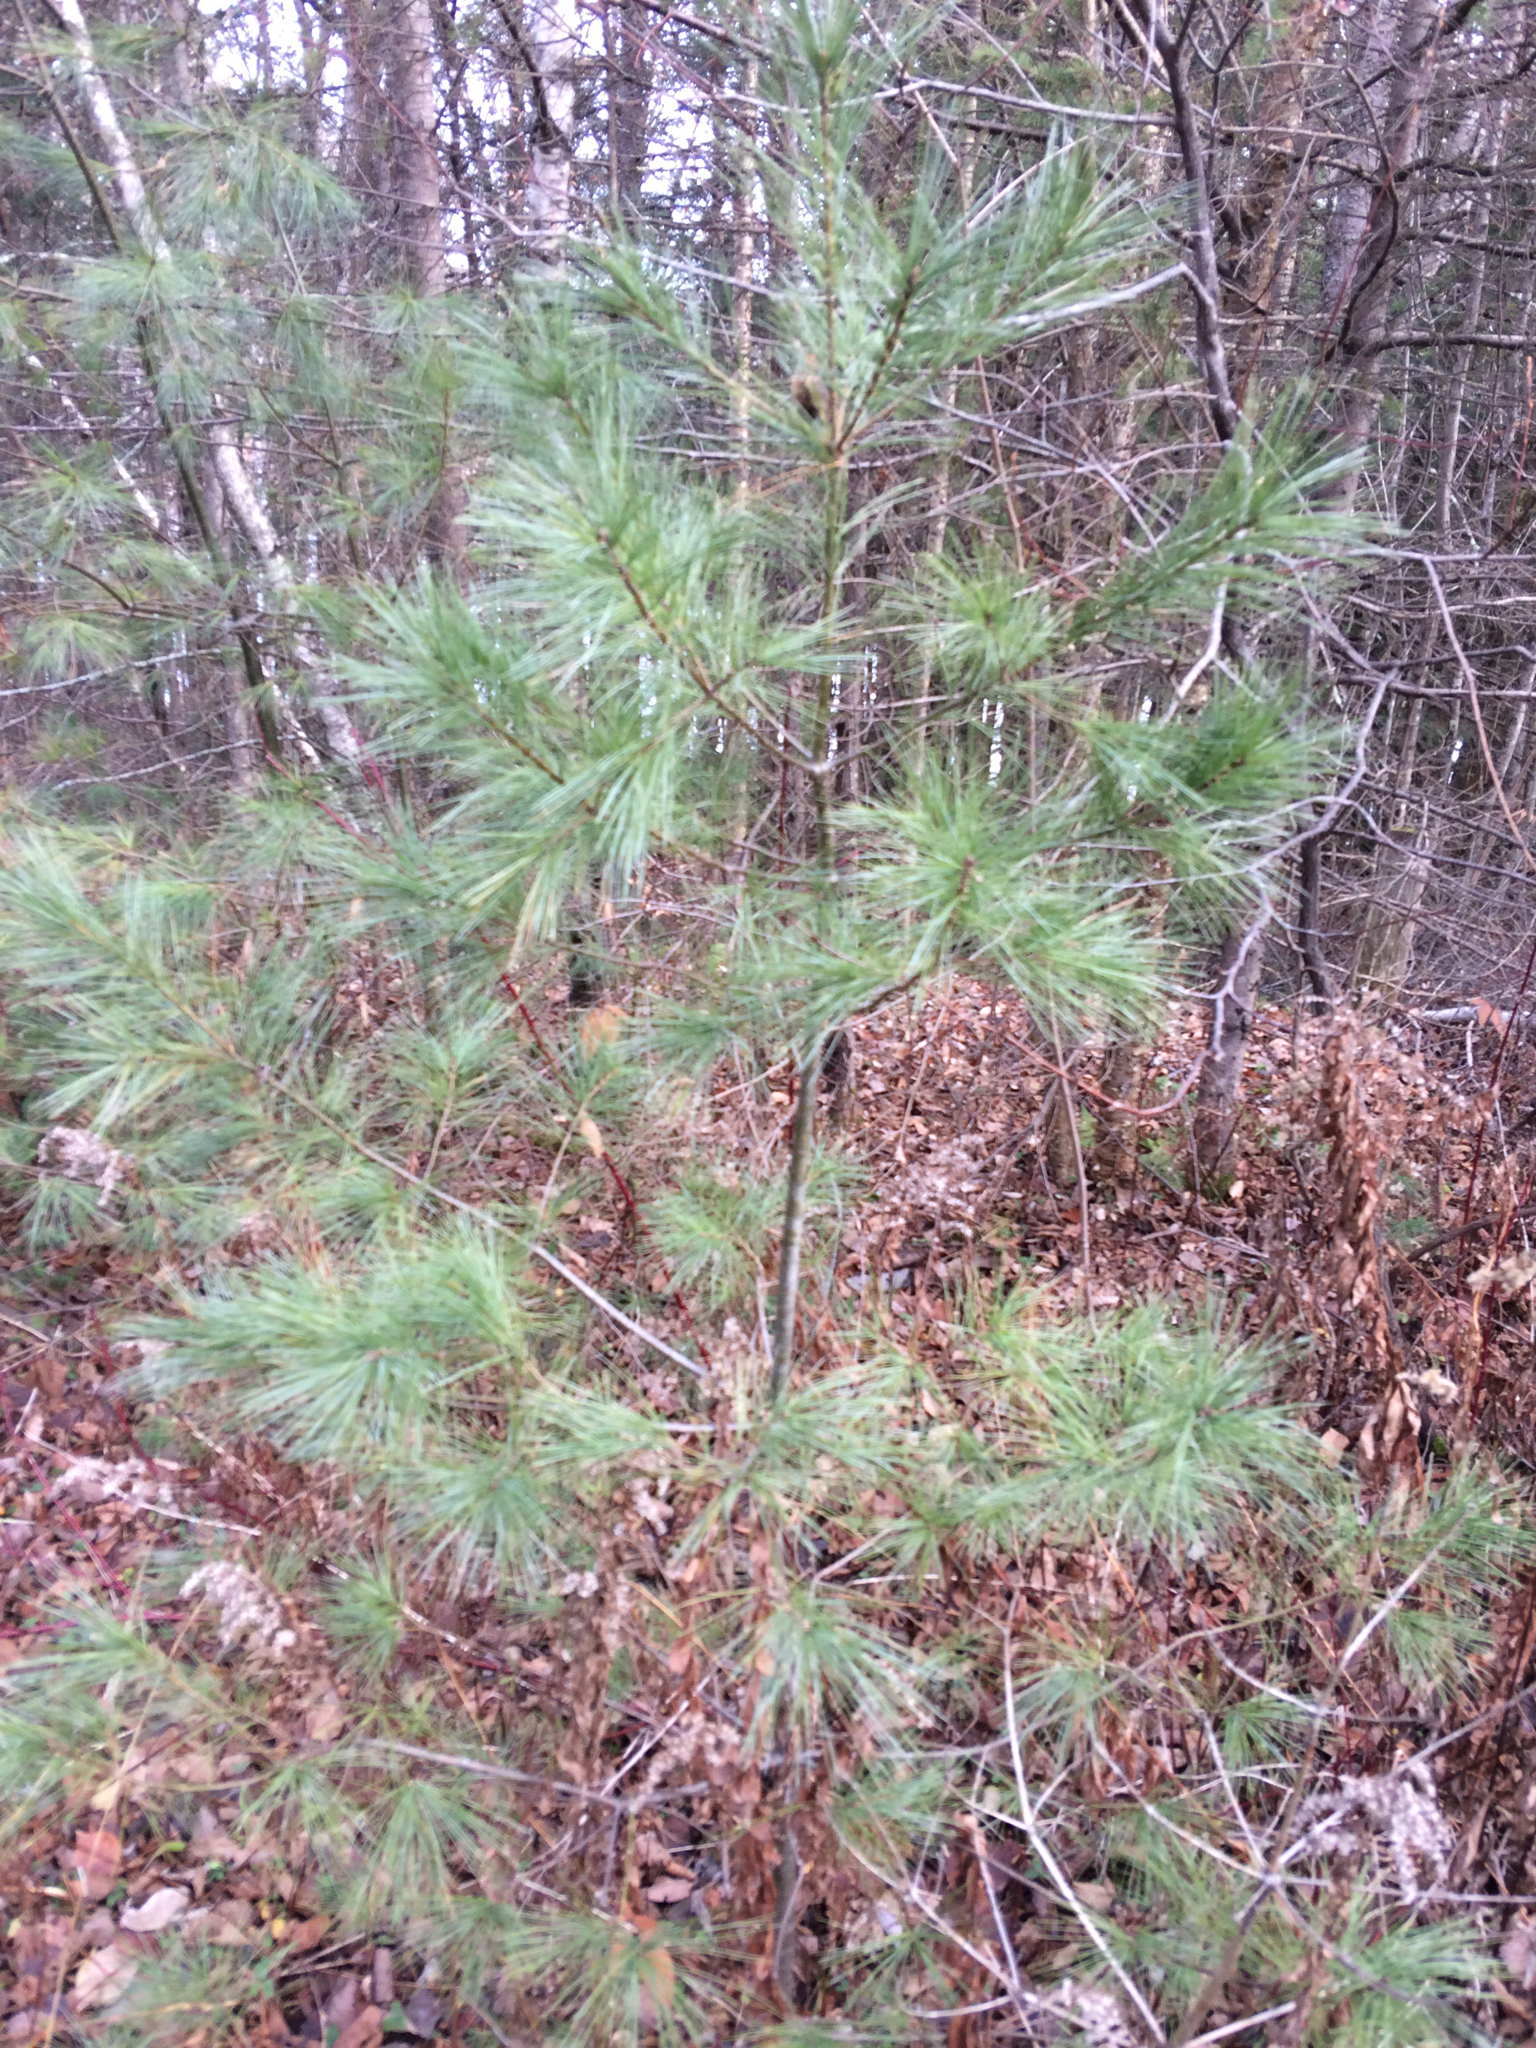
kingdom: Plantae
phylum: Tracheophyta
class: Pinopsida
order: Pinales
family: Pinaceae
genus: Pinus
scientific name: Pinus strobus
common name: Weymouth pine
